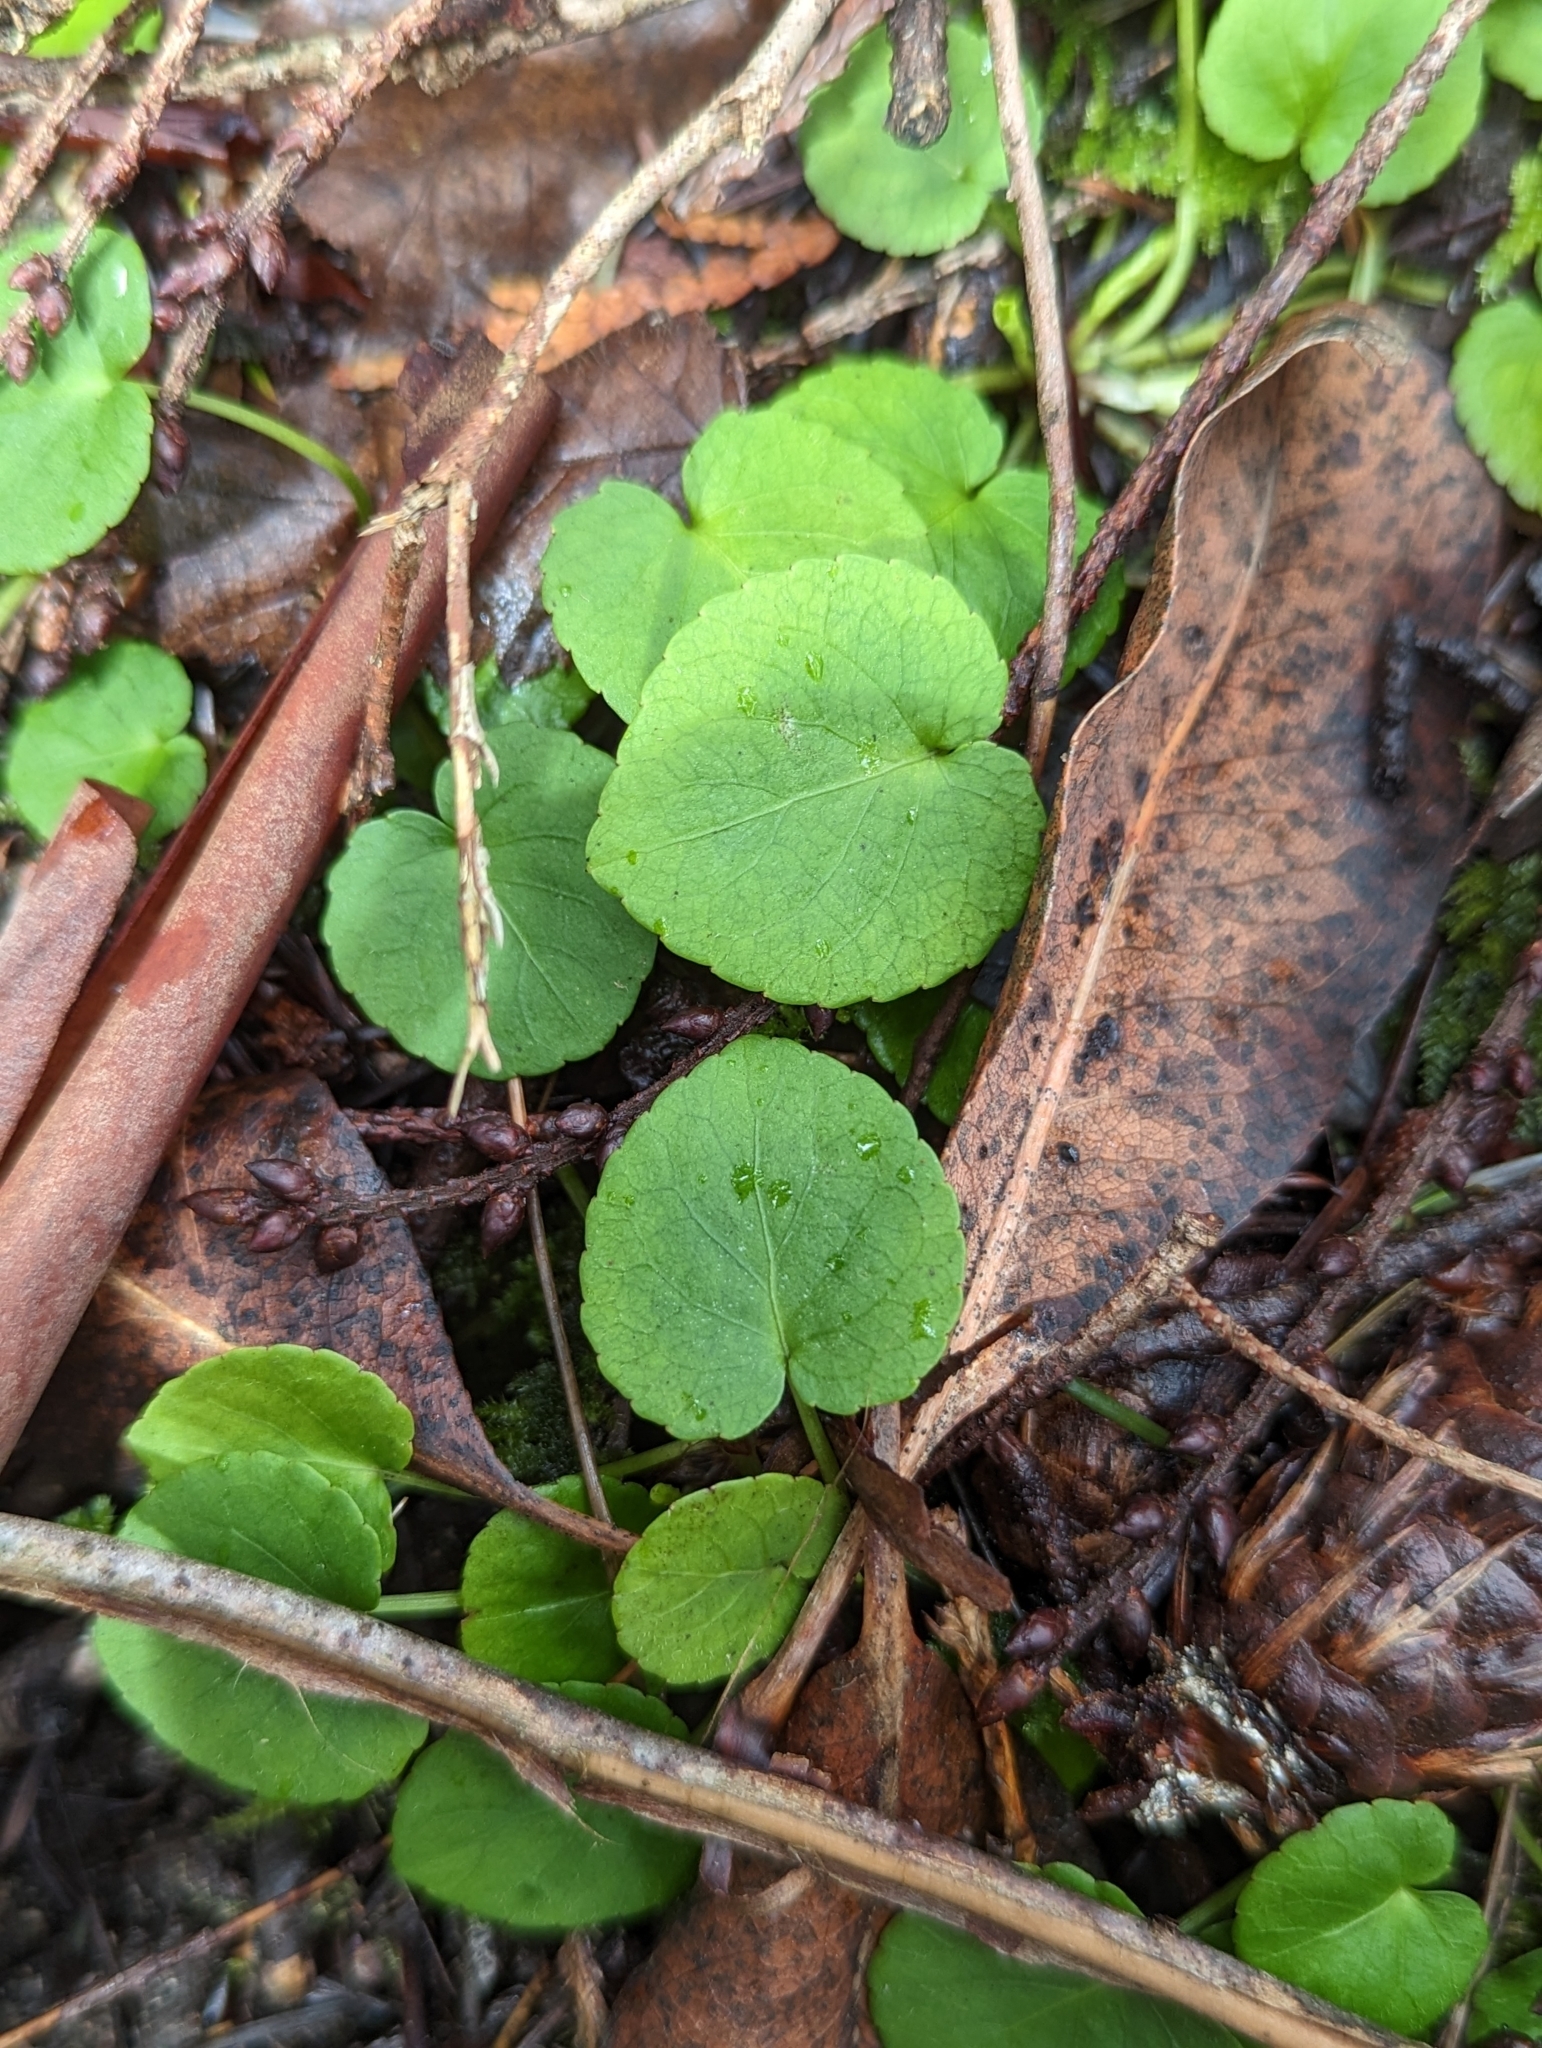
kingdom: Plantae
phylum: Tracheophyta
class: Magnoliopsida
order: Malpighiales
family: Violaceae
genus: Viola
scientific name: Viola sempervirens
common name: Evergreen violet
